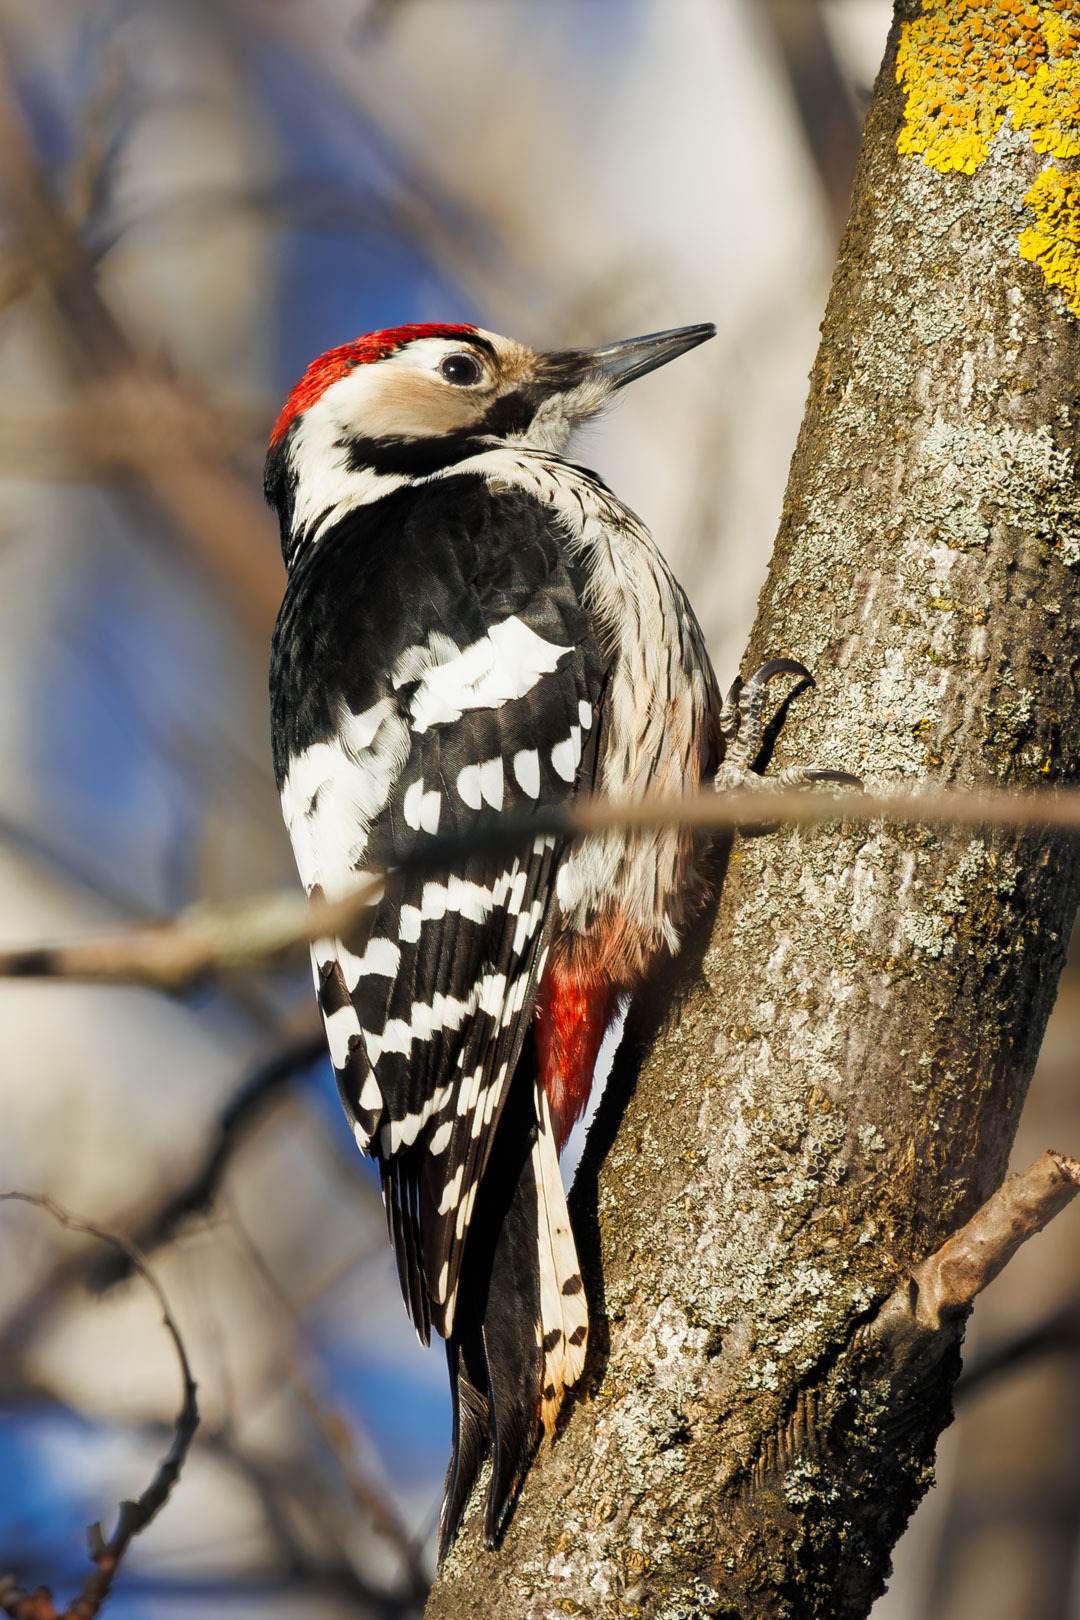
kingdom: Animalia
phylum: Chordata
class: Aves
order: Piciformes
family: Picidae
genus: Dendrocopos
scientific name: Dendrocopos leucotos
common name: White-backed woodpecker
